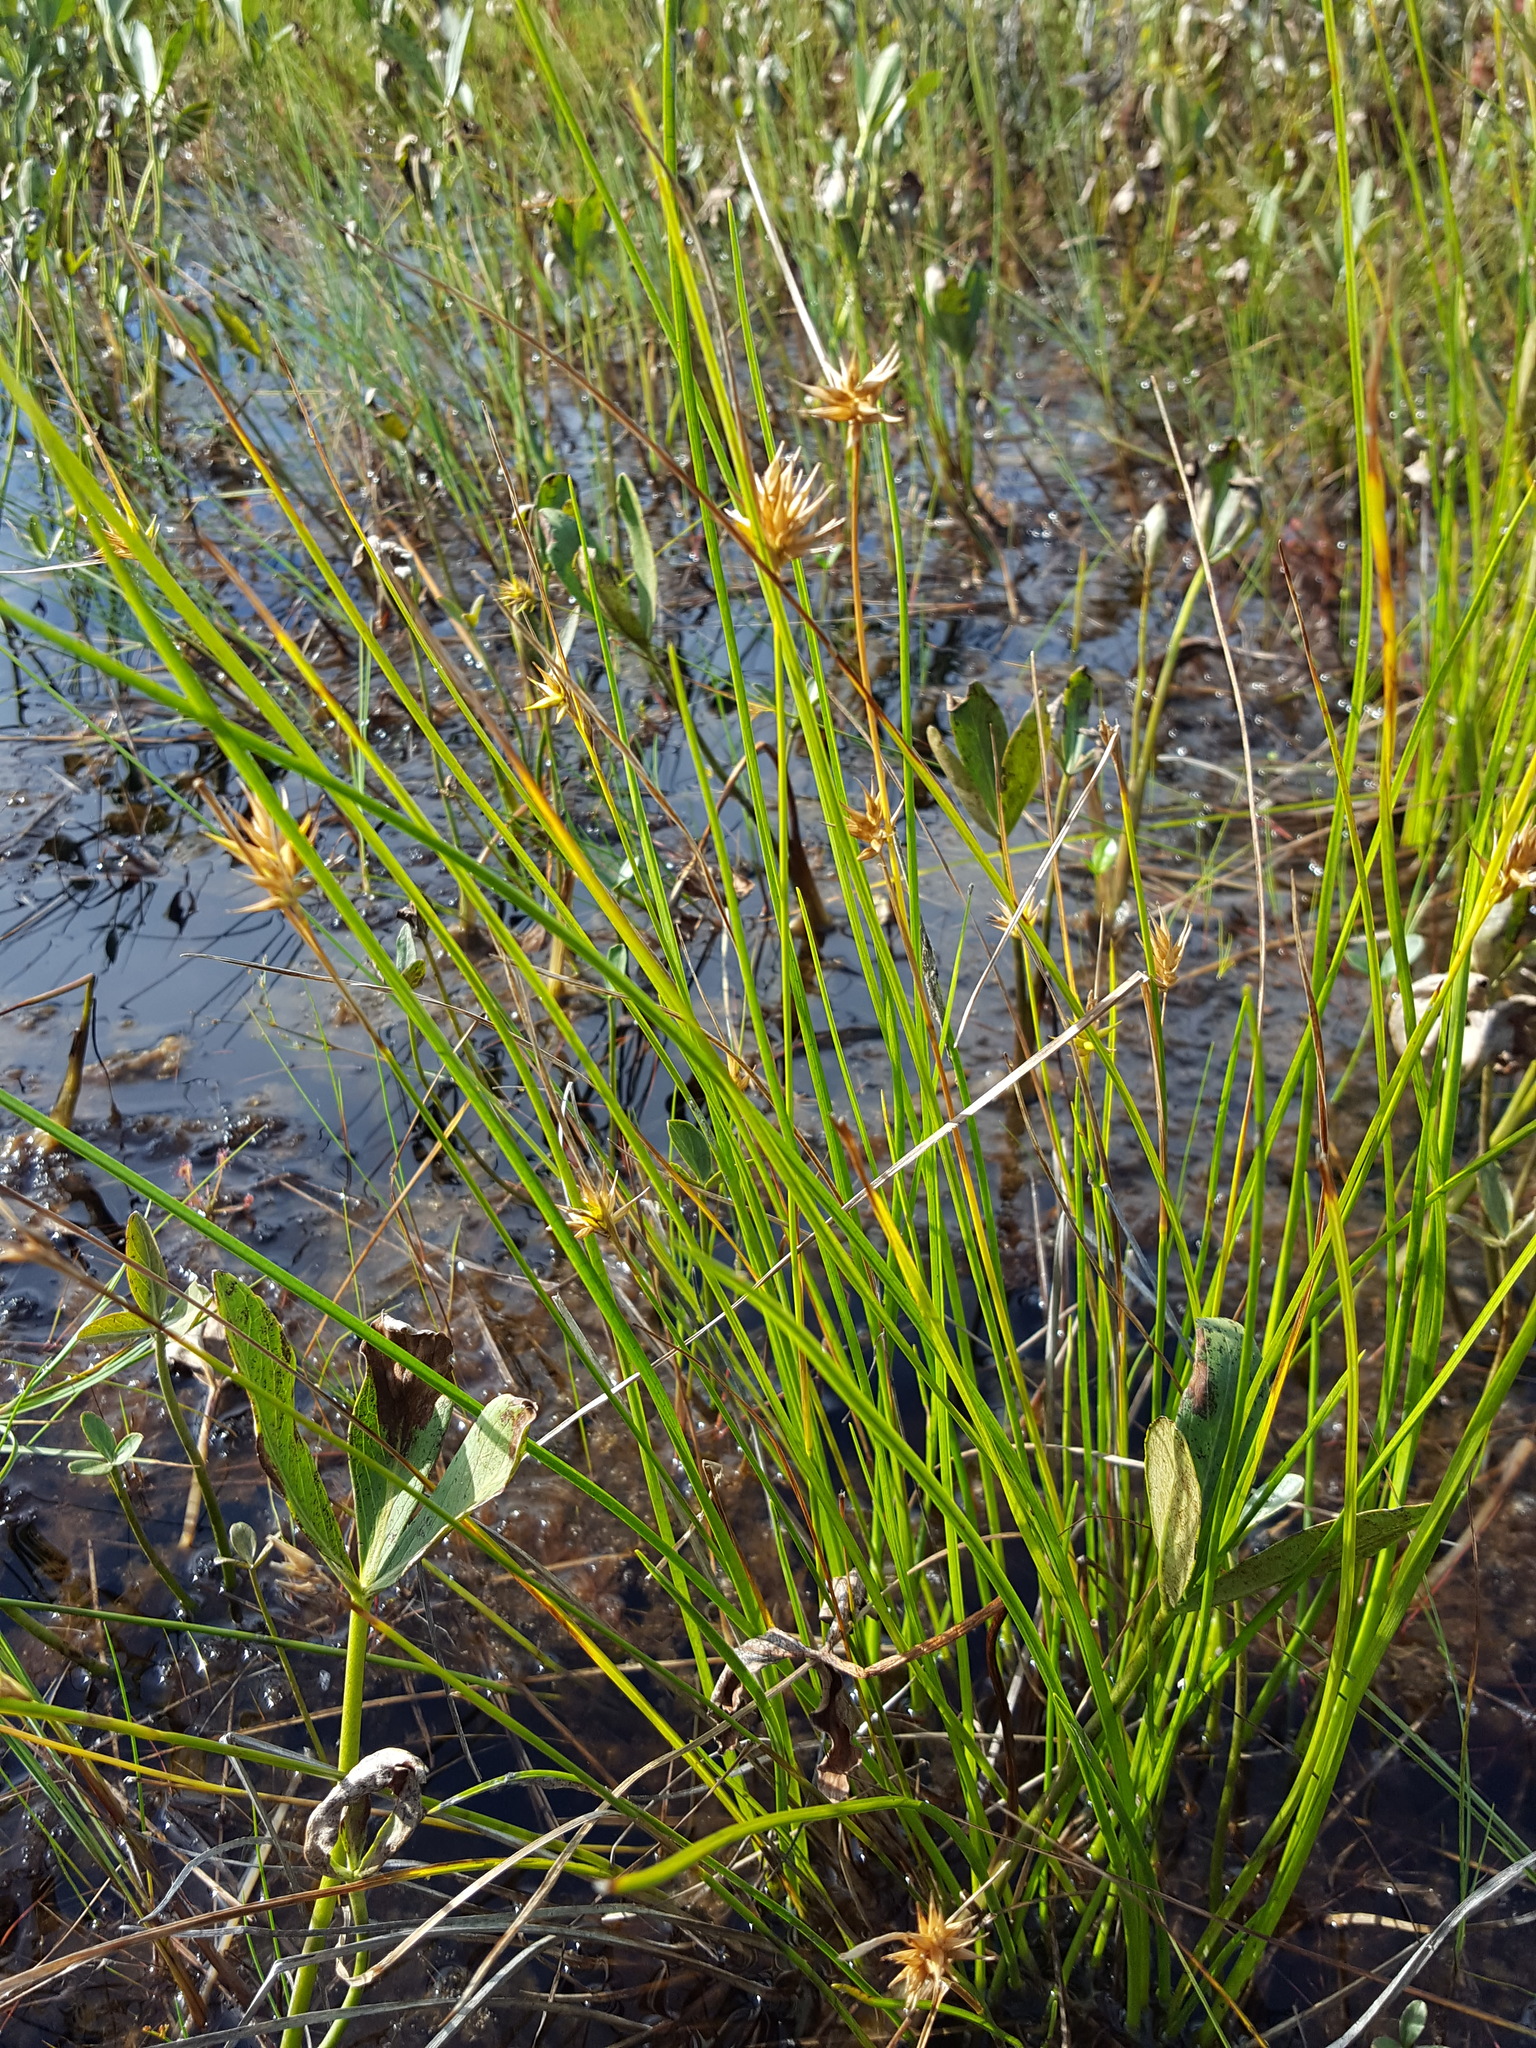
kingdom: Plantae
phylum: Tracheophyta
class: Liliopsida
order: Poales
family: Cyperaceae
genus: Carex
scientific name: Carex michauxiana
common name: Michaux's sedge
